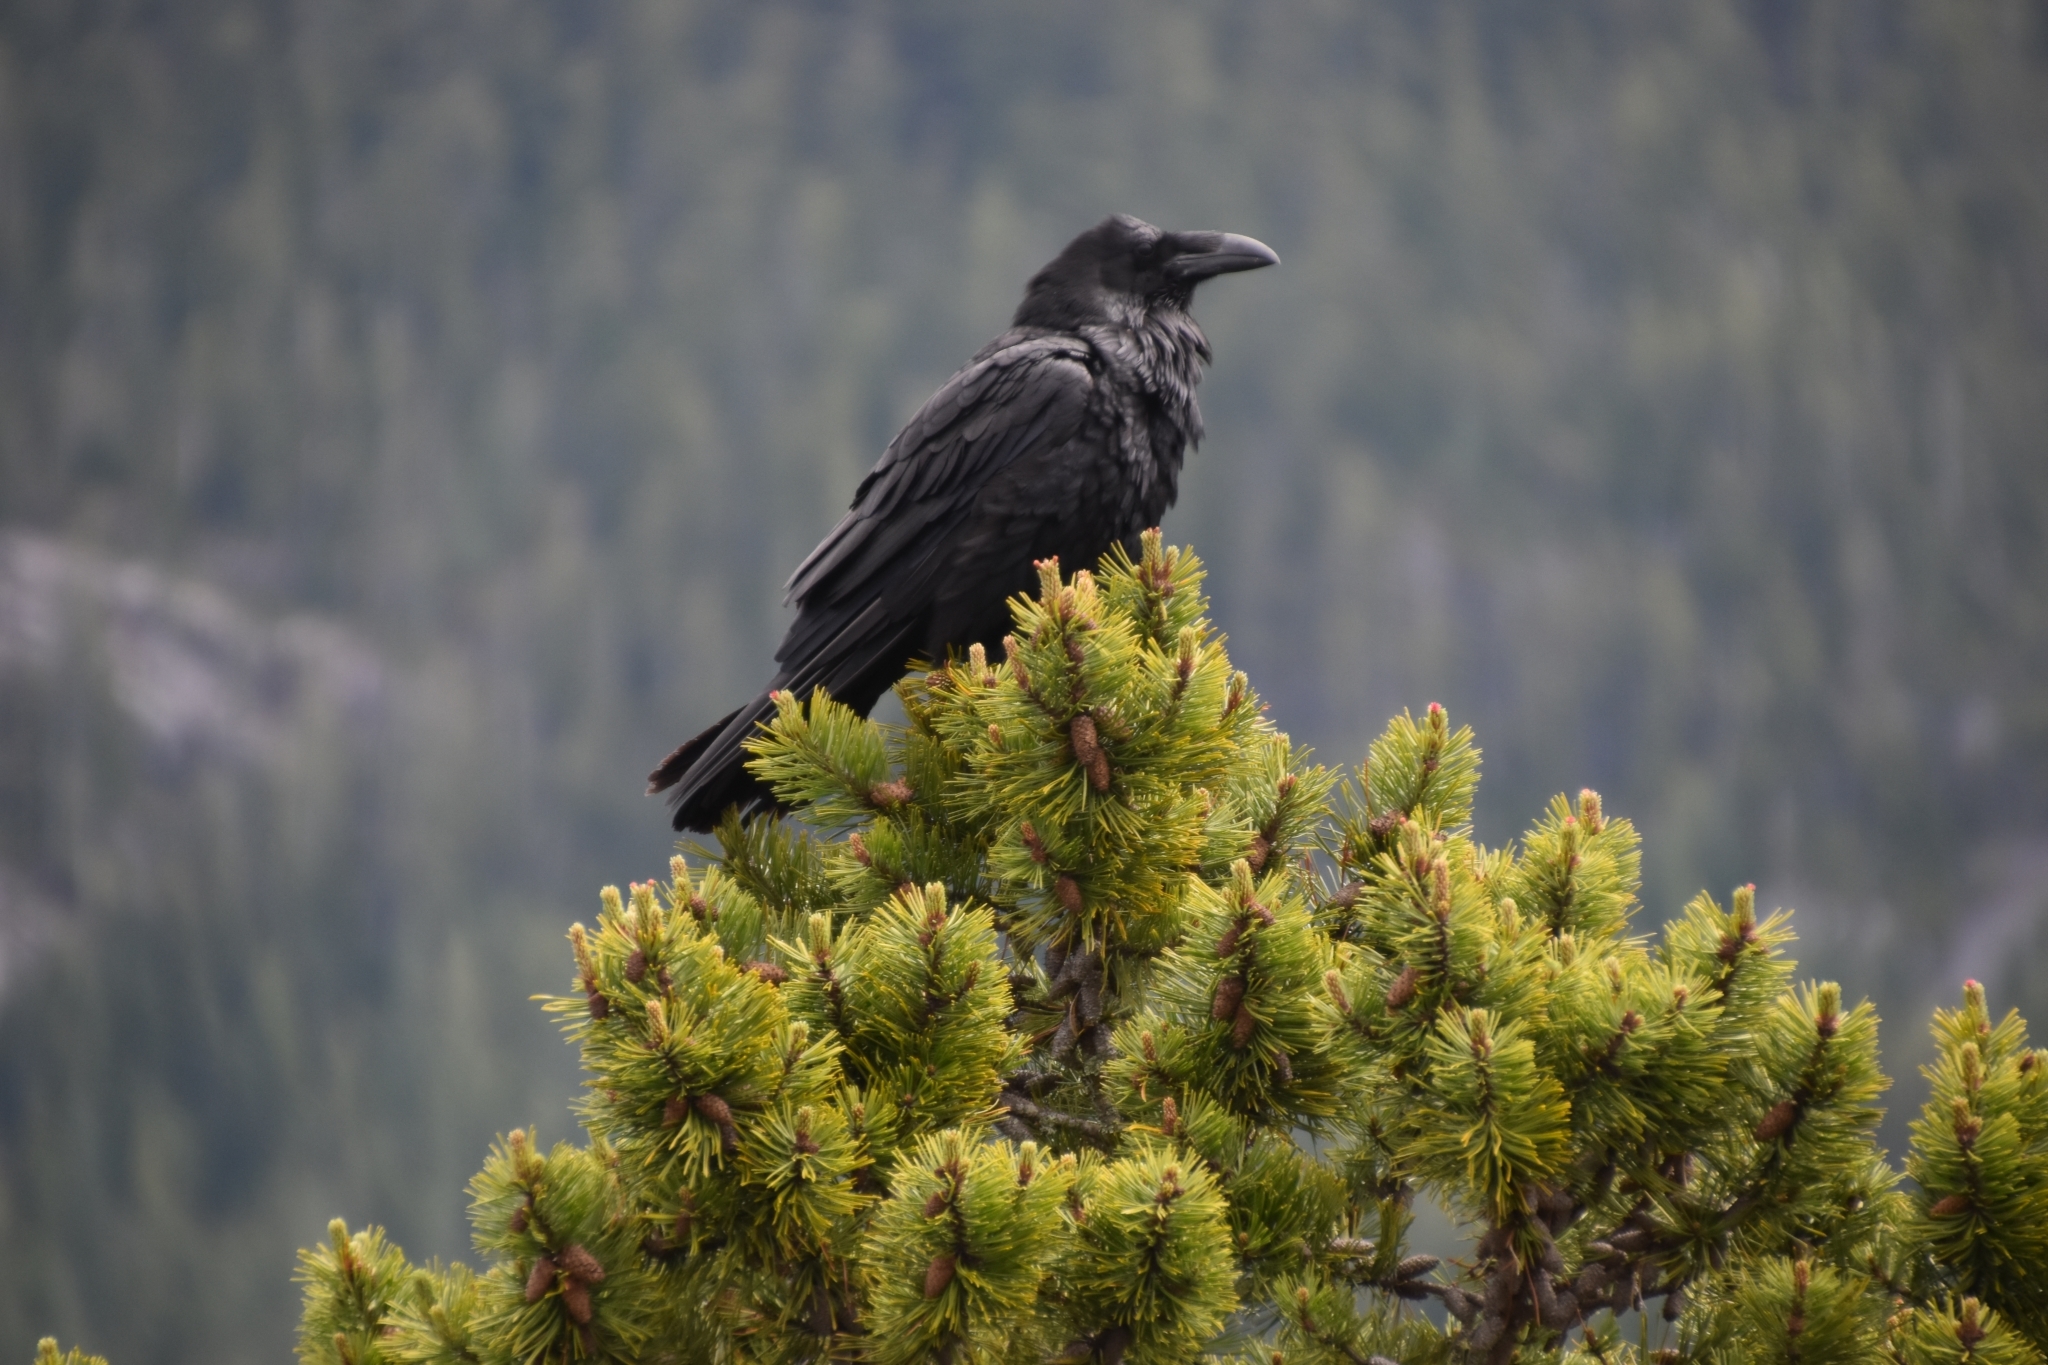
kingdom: Animalia
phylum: Chordata
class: Aves
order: Passeriformes
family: Corvidae
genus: Corvus
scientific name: Corvus corax
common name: Common raven
